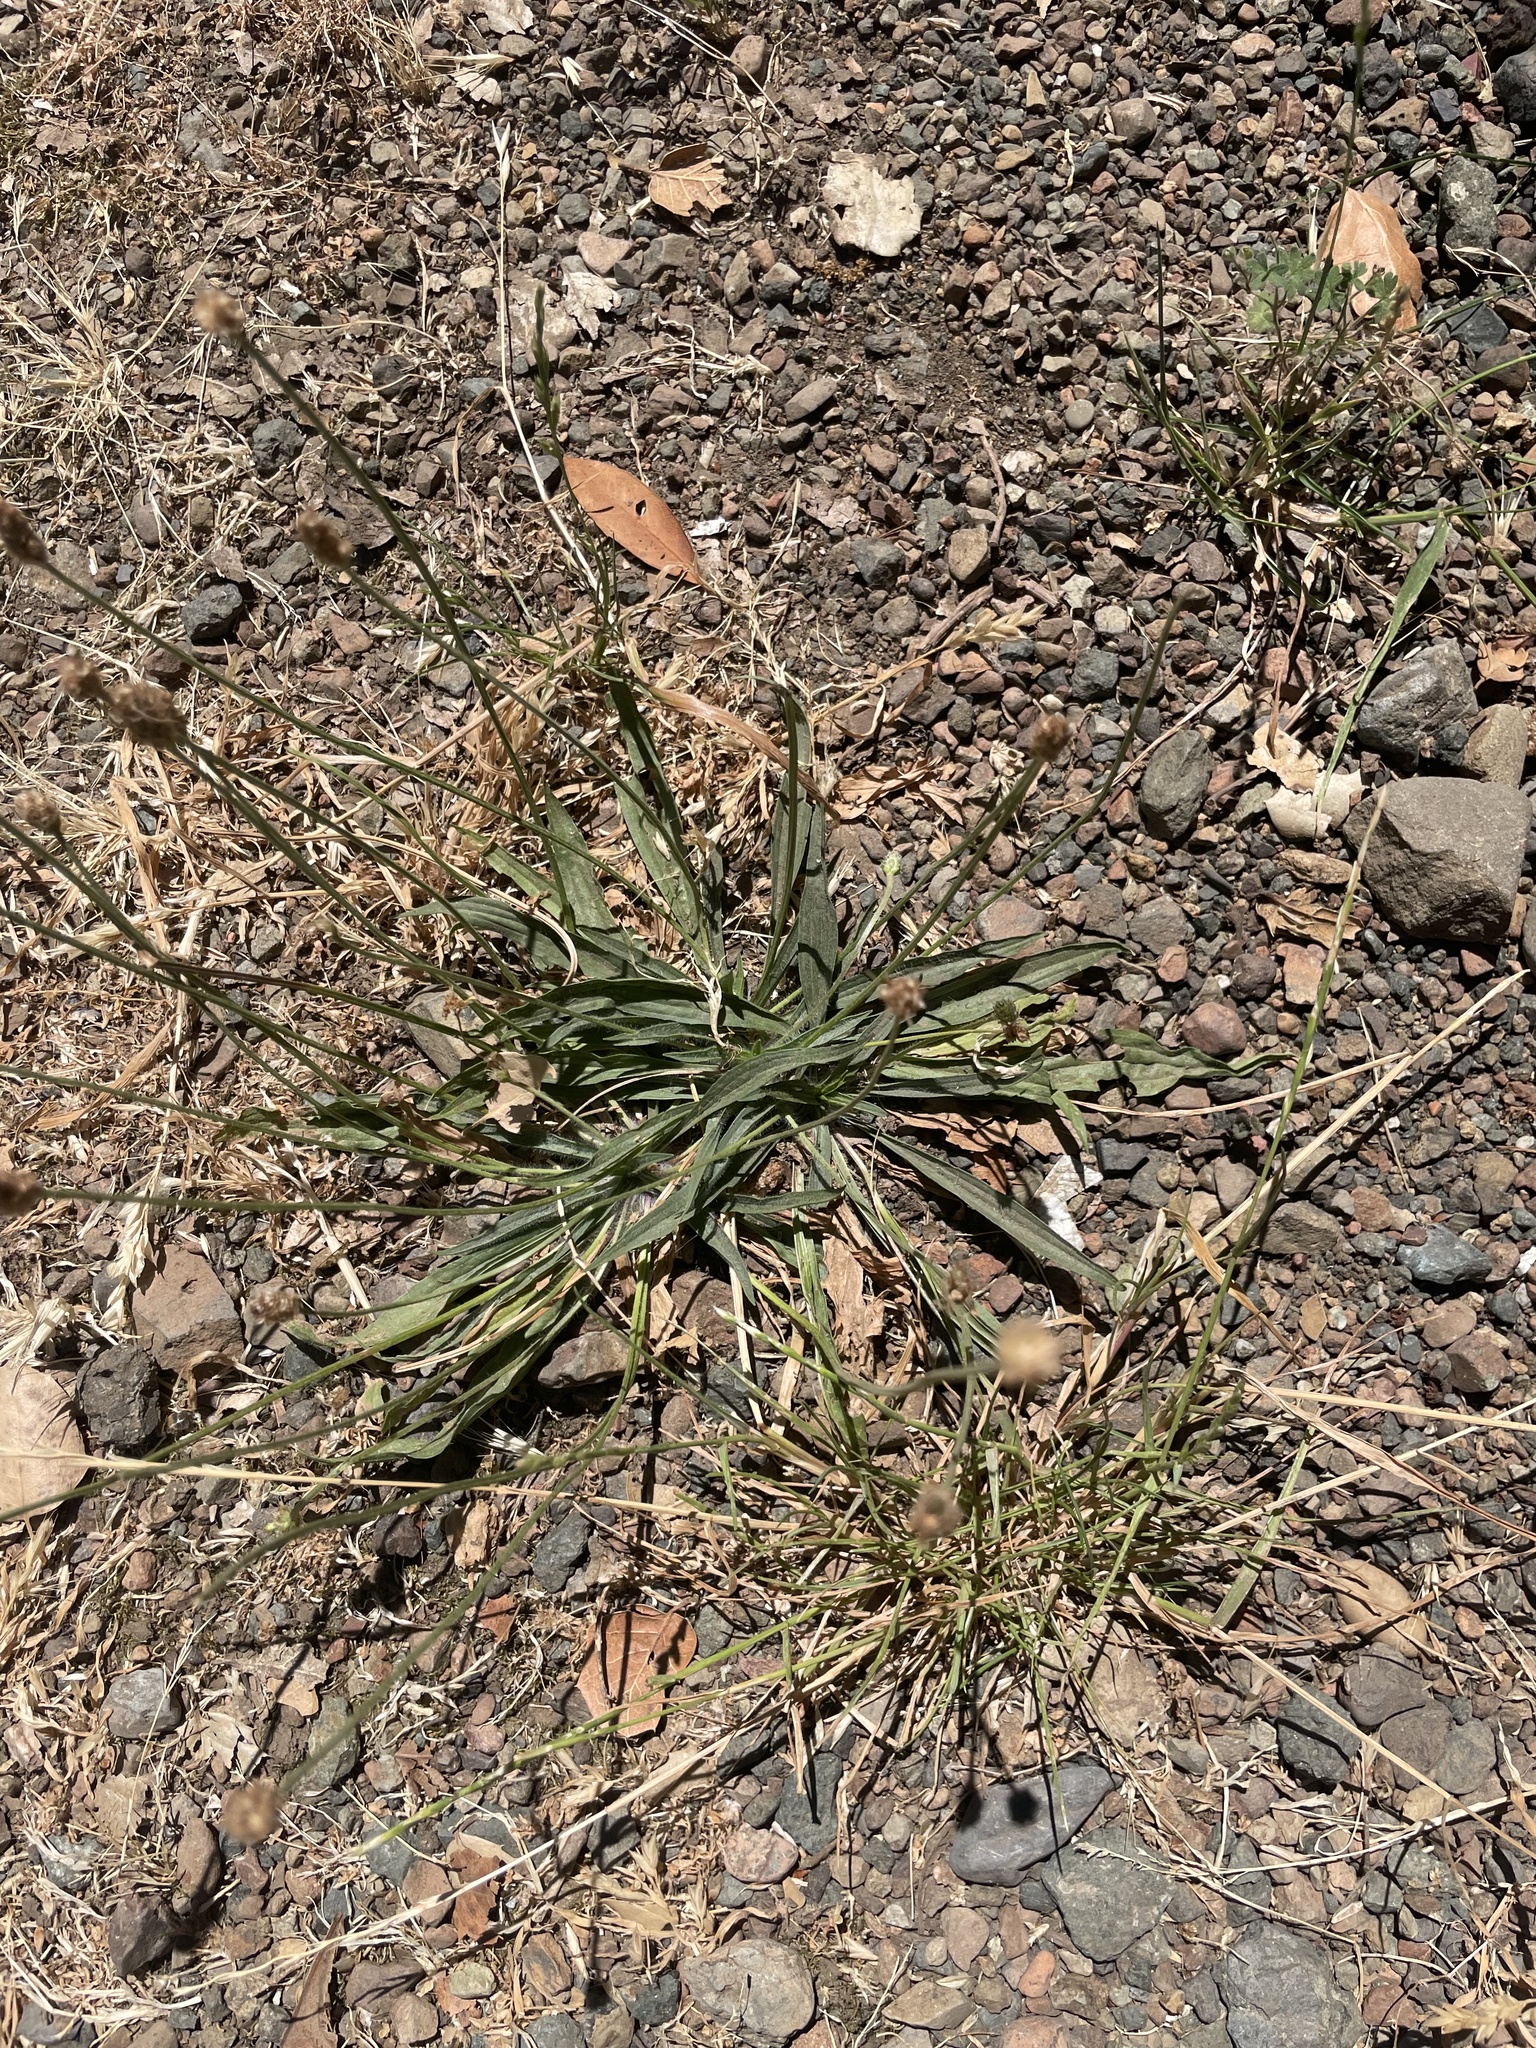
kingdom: Plantae
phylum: Tracheophyta
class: Magnoliopsida
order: Lamiales
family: Plantaginaceae
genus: Plantago
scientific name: Plantago lanceolata
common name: Ribwort plantain
